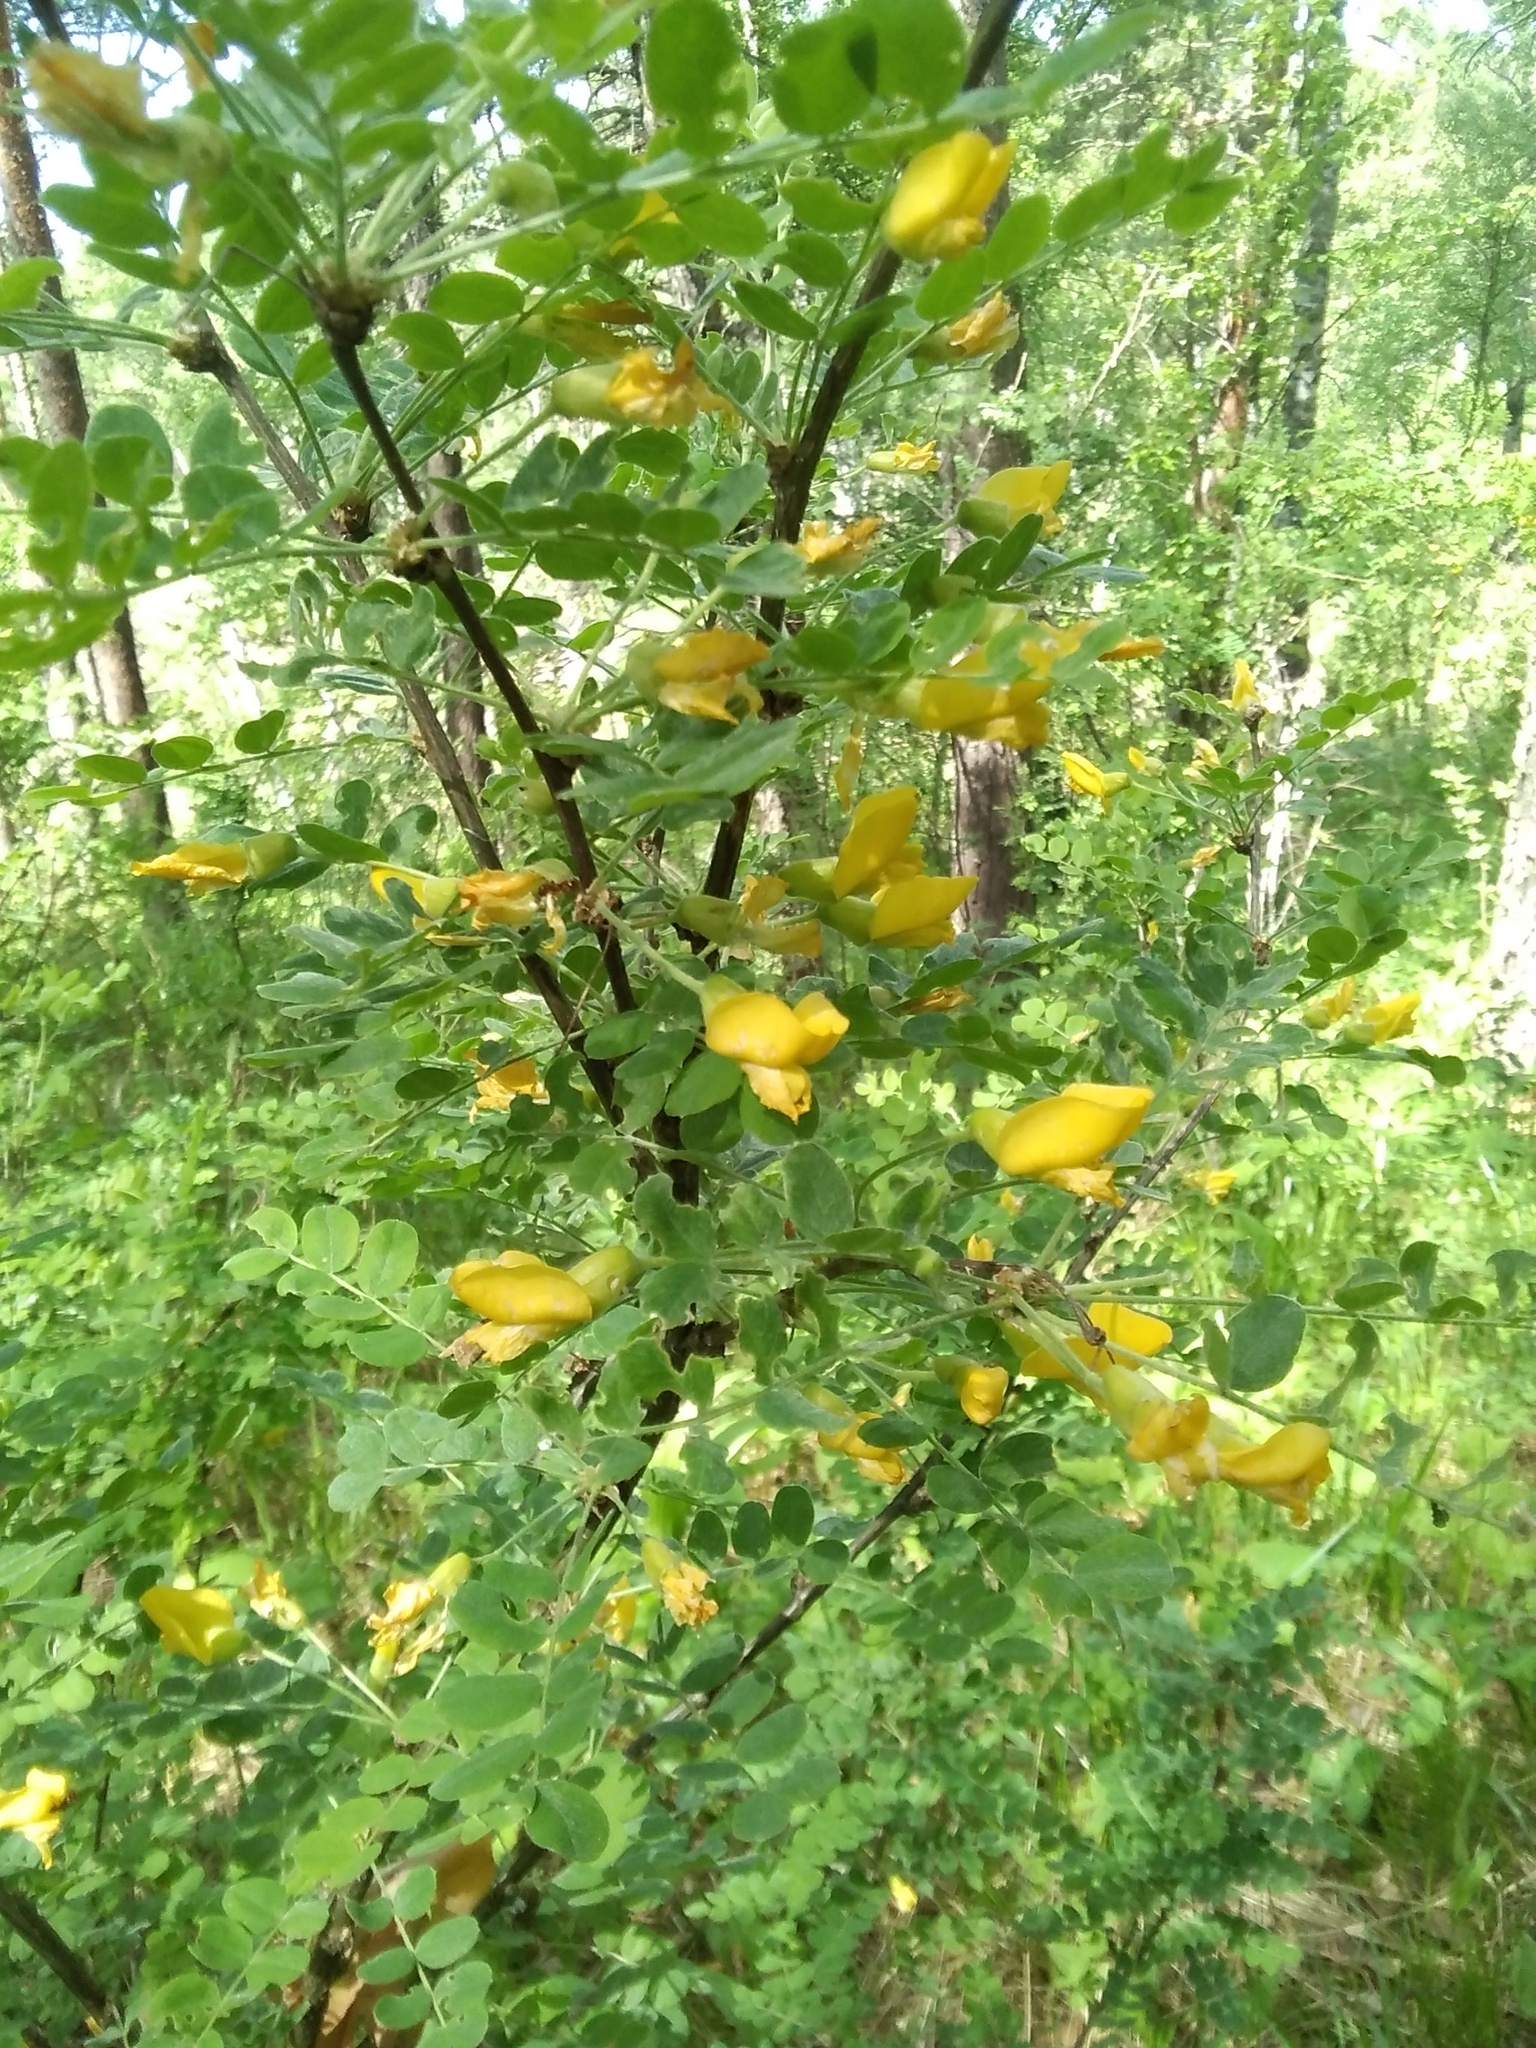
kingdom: Plantae
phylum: Tracheophyta
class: Magnoliopsida
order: Fabales
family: Fabaceae
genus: Caragana
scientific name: Caragana arborescens
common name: Siberian peashrub
